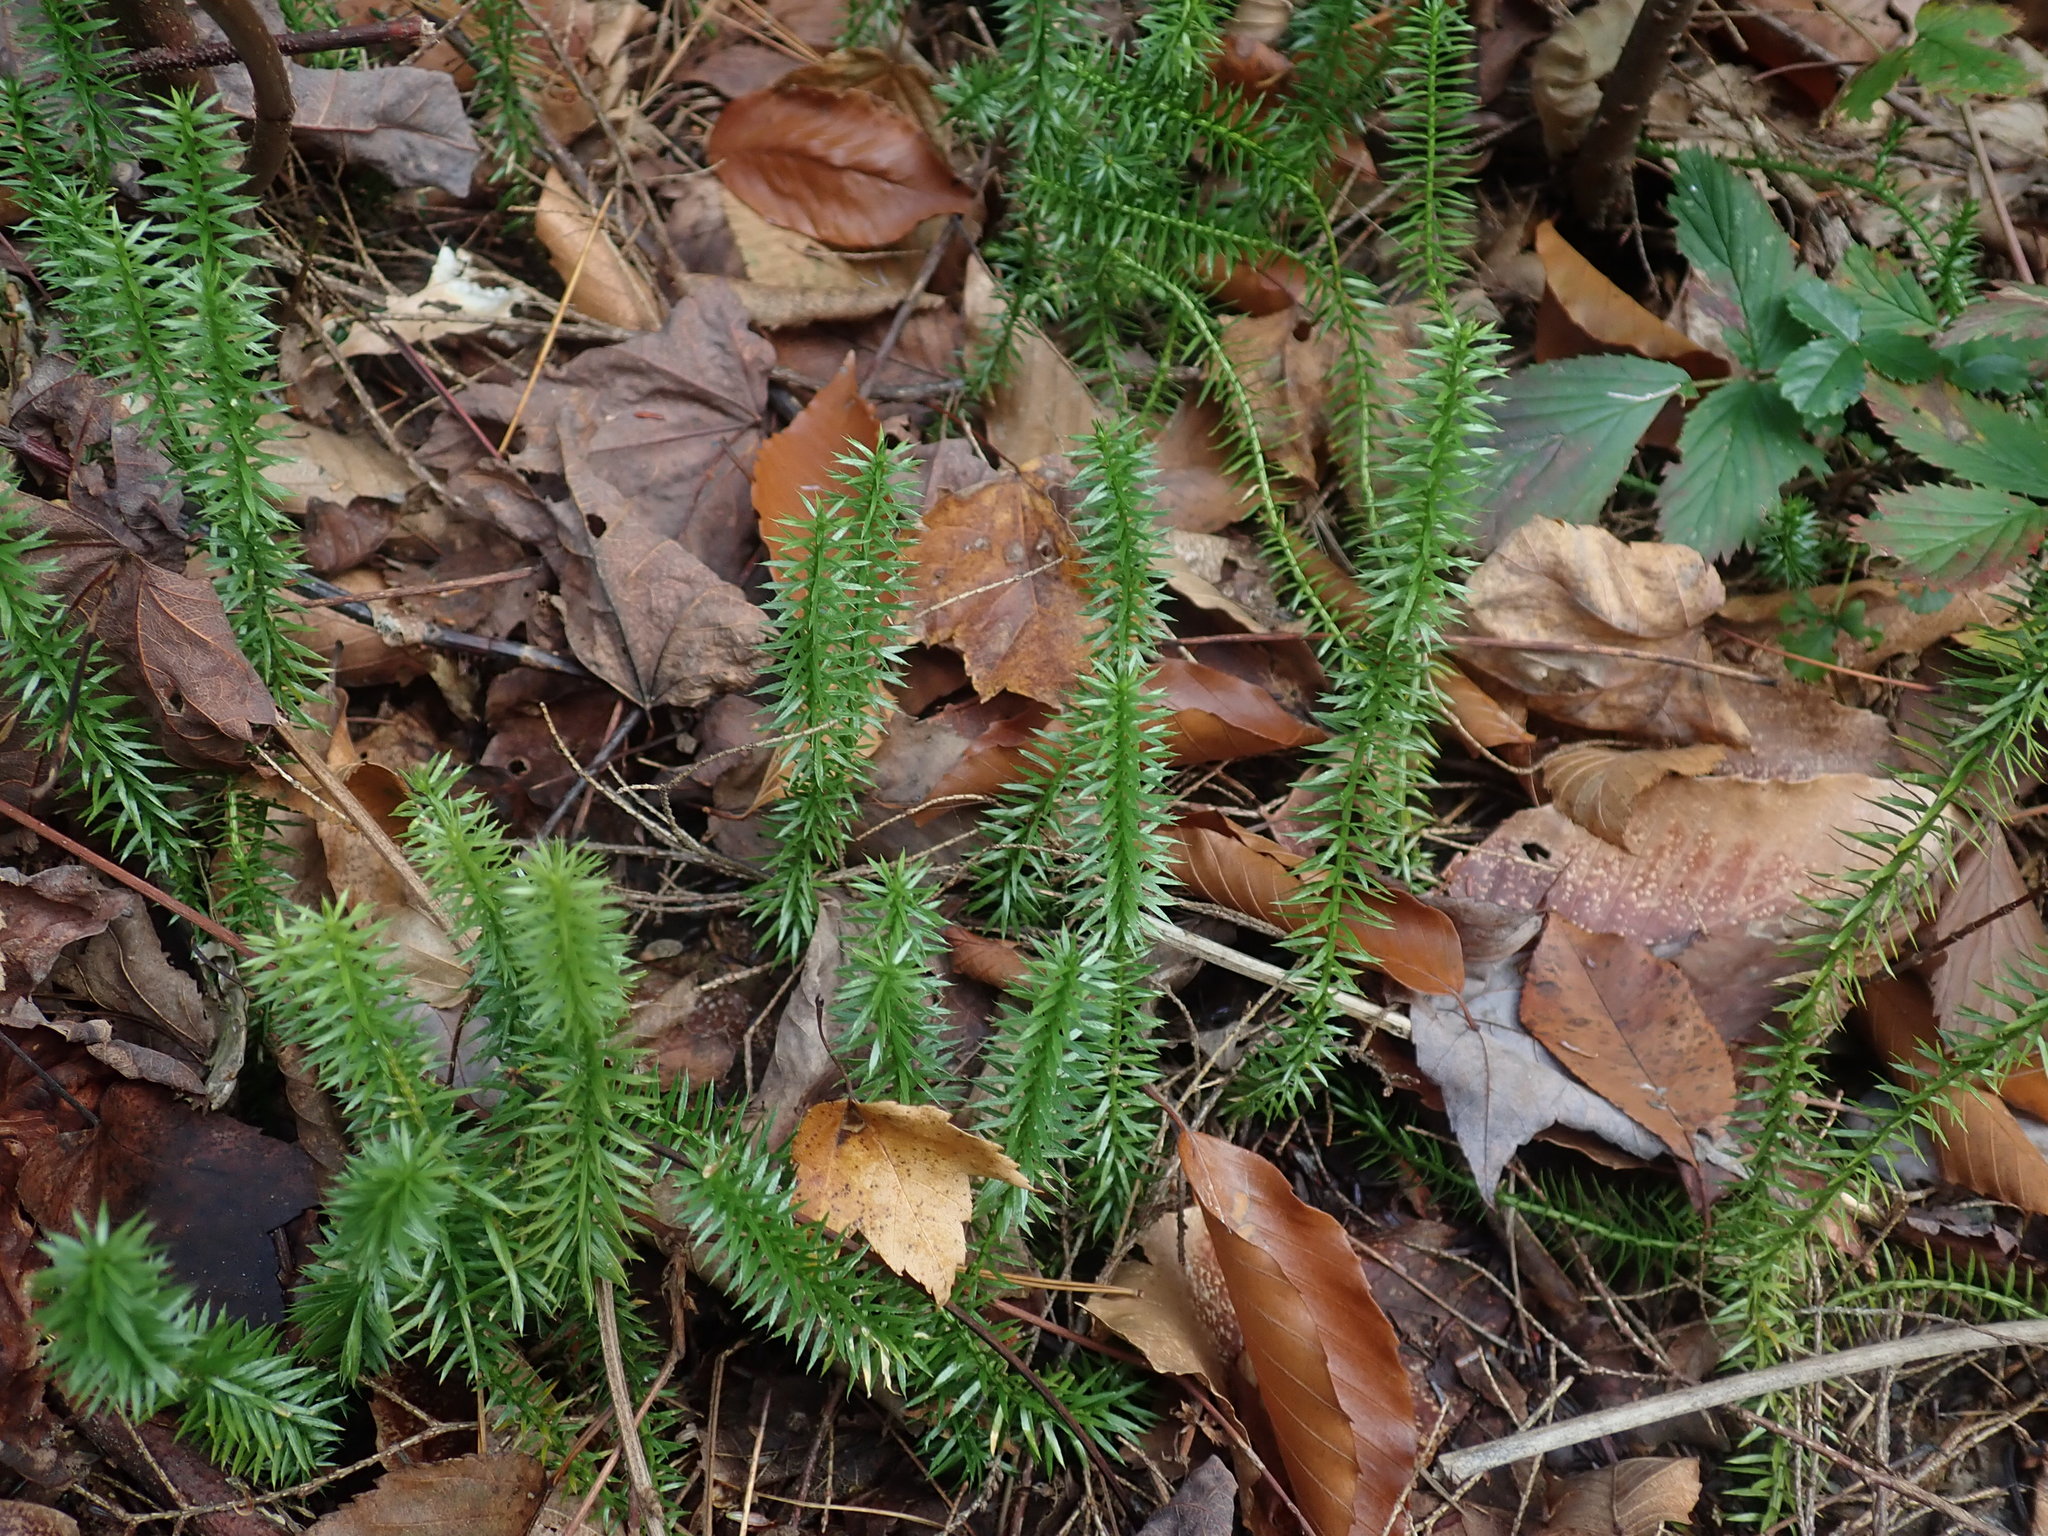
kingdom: Plantae
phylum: Tracheophyta
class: Lycopodiopsida
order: Lycopodiales
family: Lycopodiaceae
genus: Spinulum
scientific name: Spinulum annotinum
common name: Interrupted club-moss
